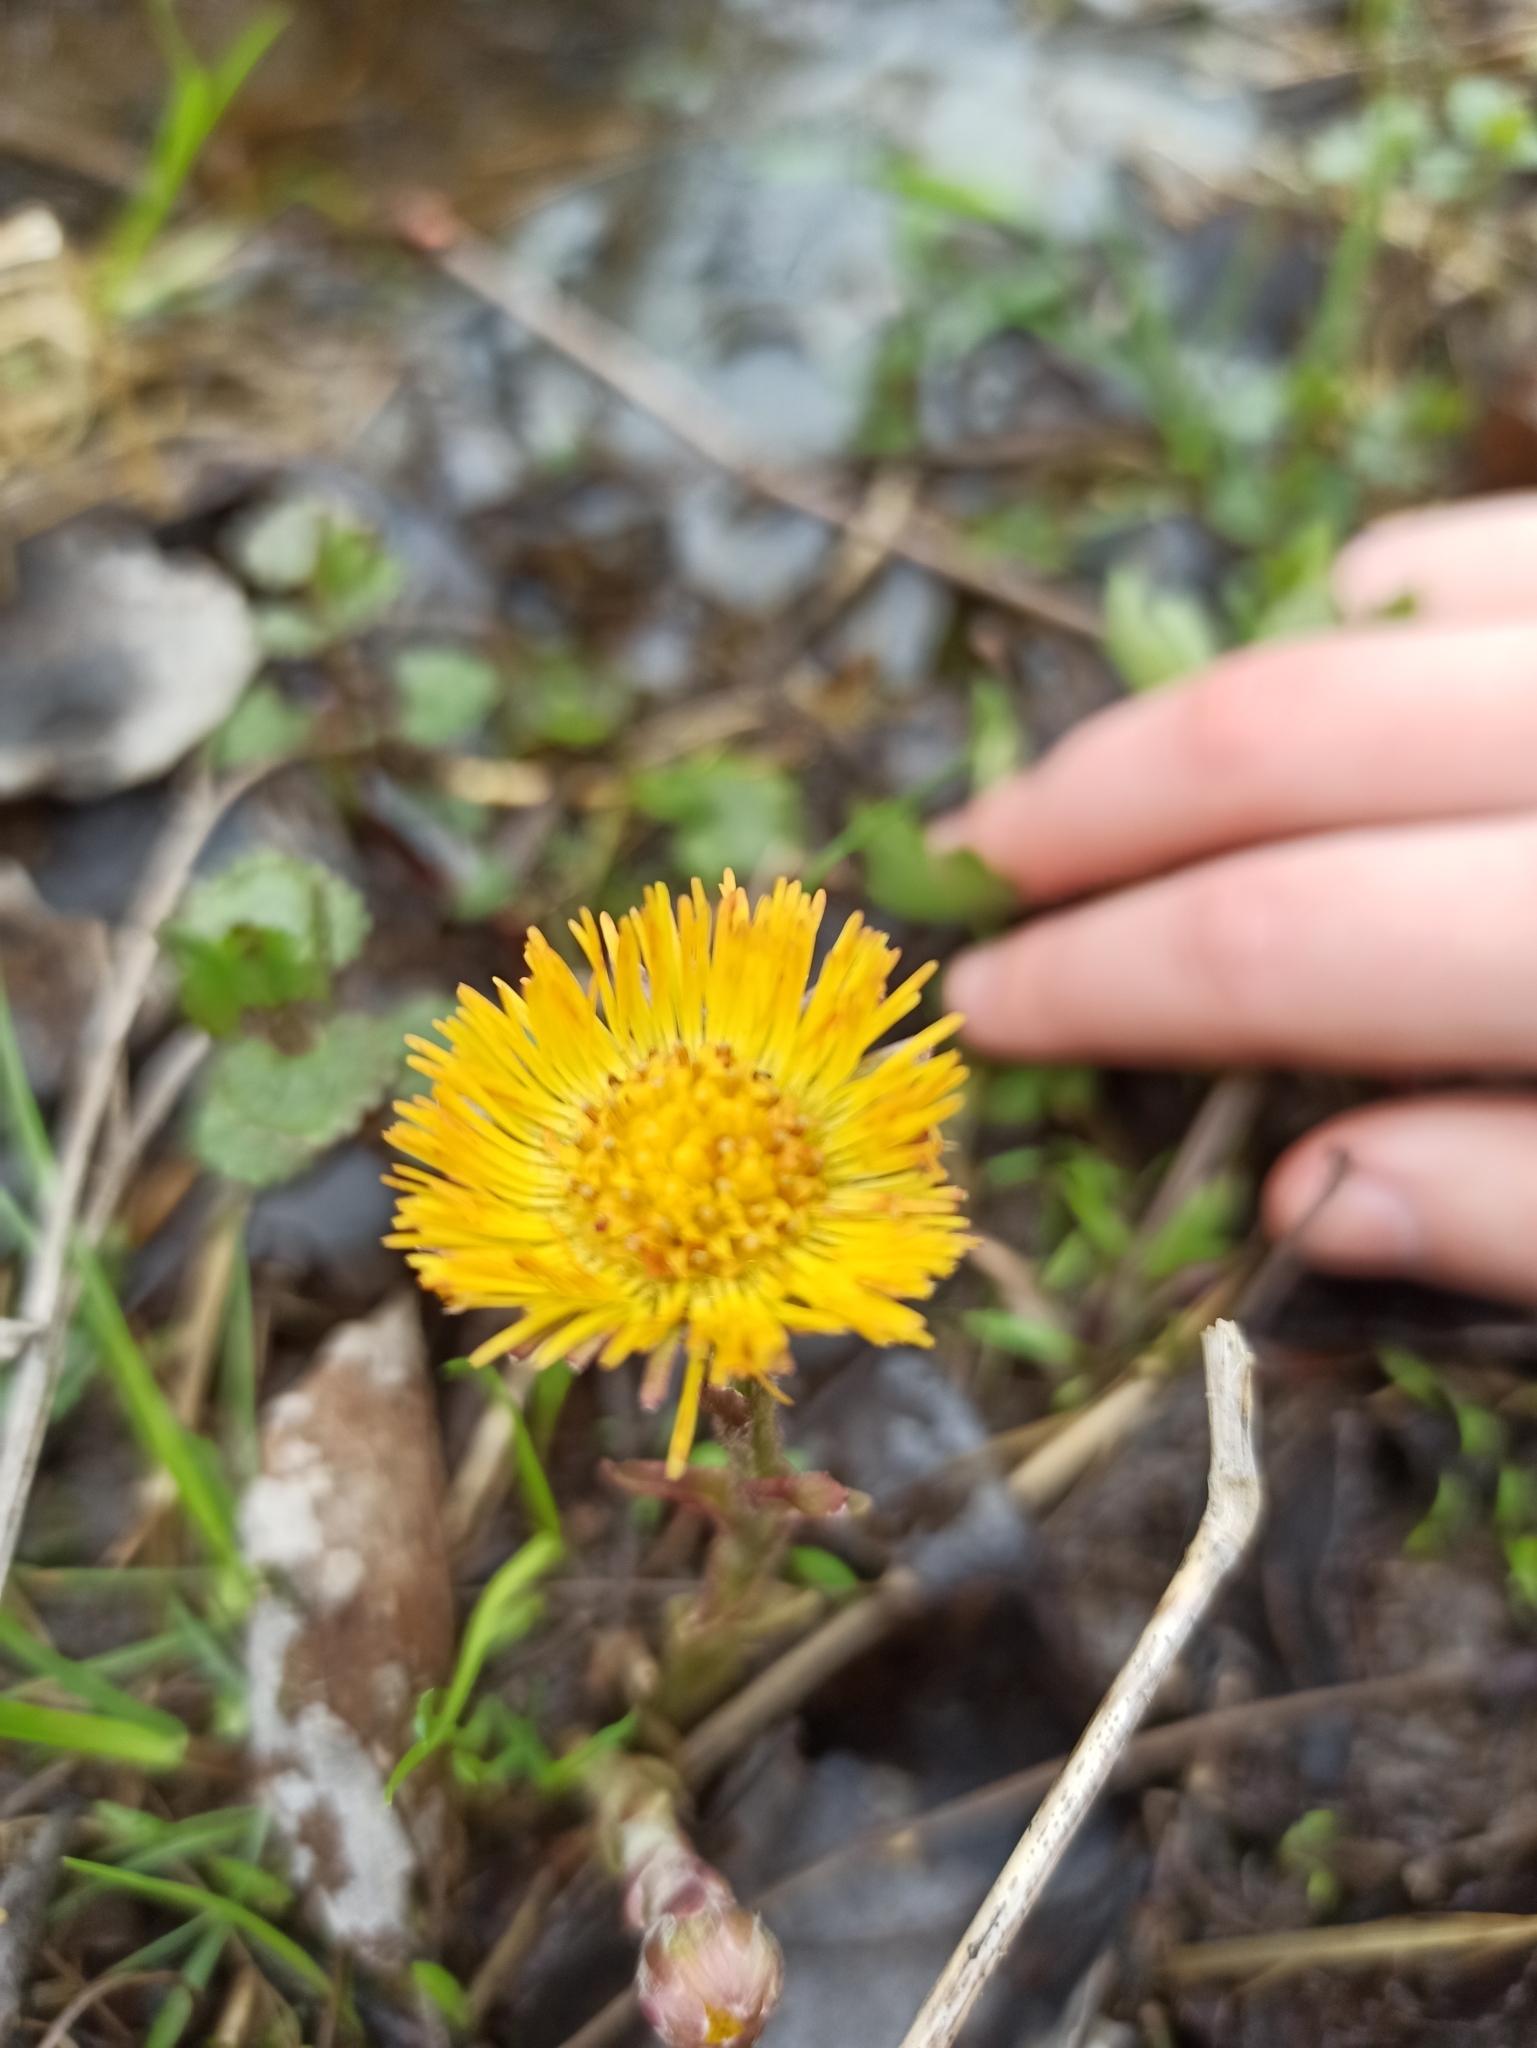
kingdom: Plantae
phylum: Tracheophyta
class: Magnoliopsida
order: Asterales
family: Asteraceae
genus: Tussilago
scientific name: Tussilago farfara
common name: Coltsfoot
